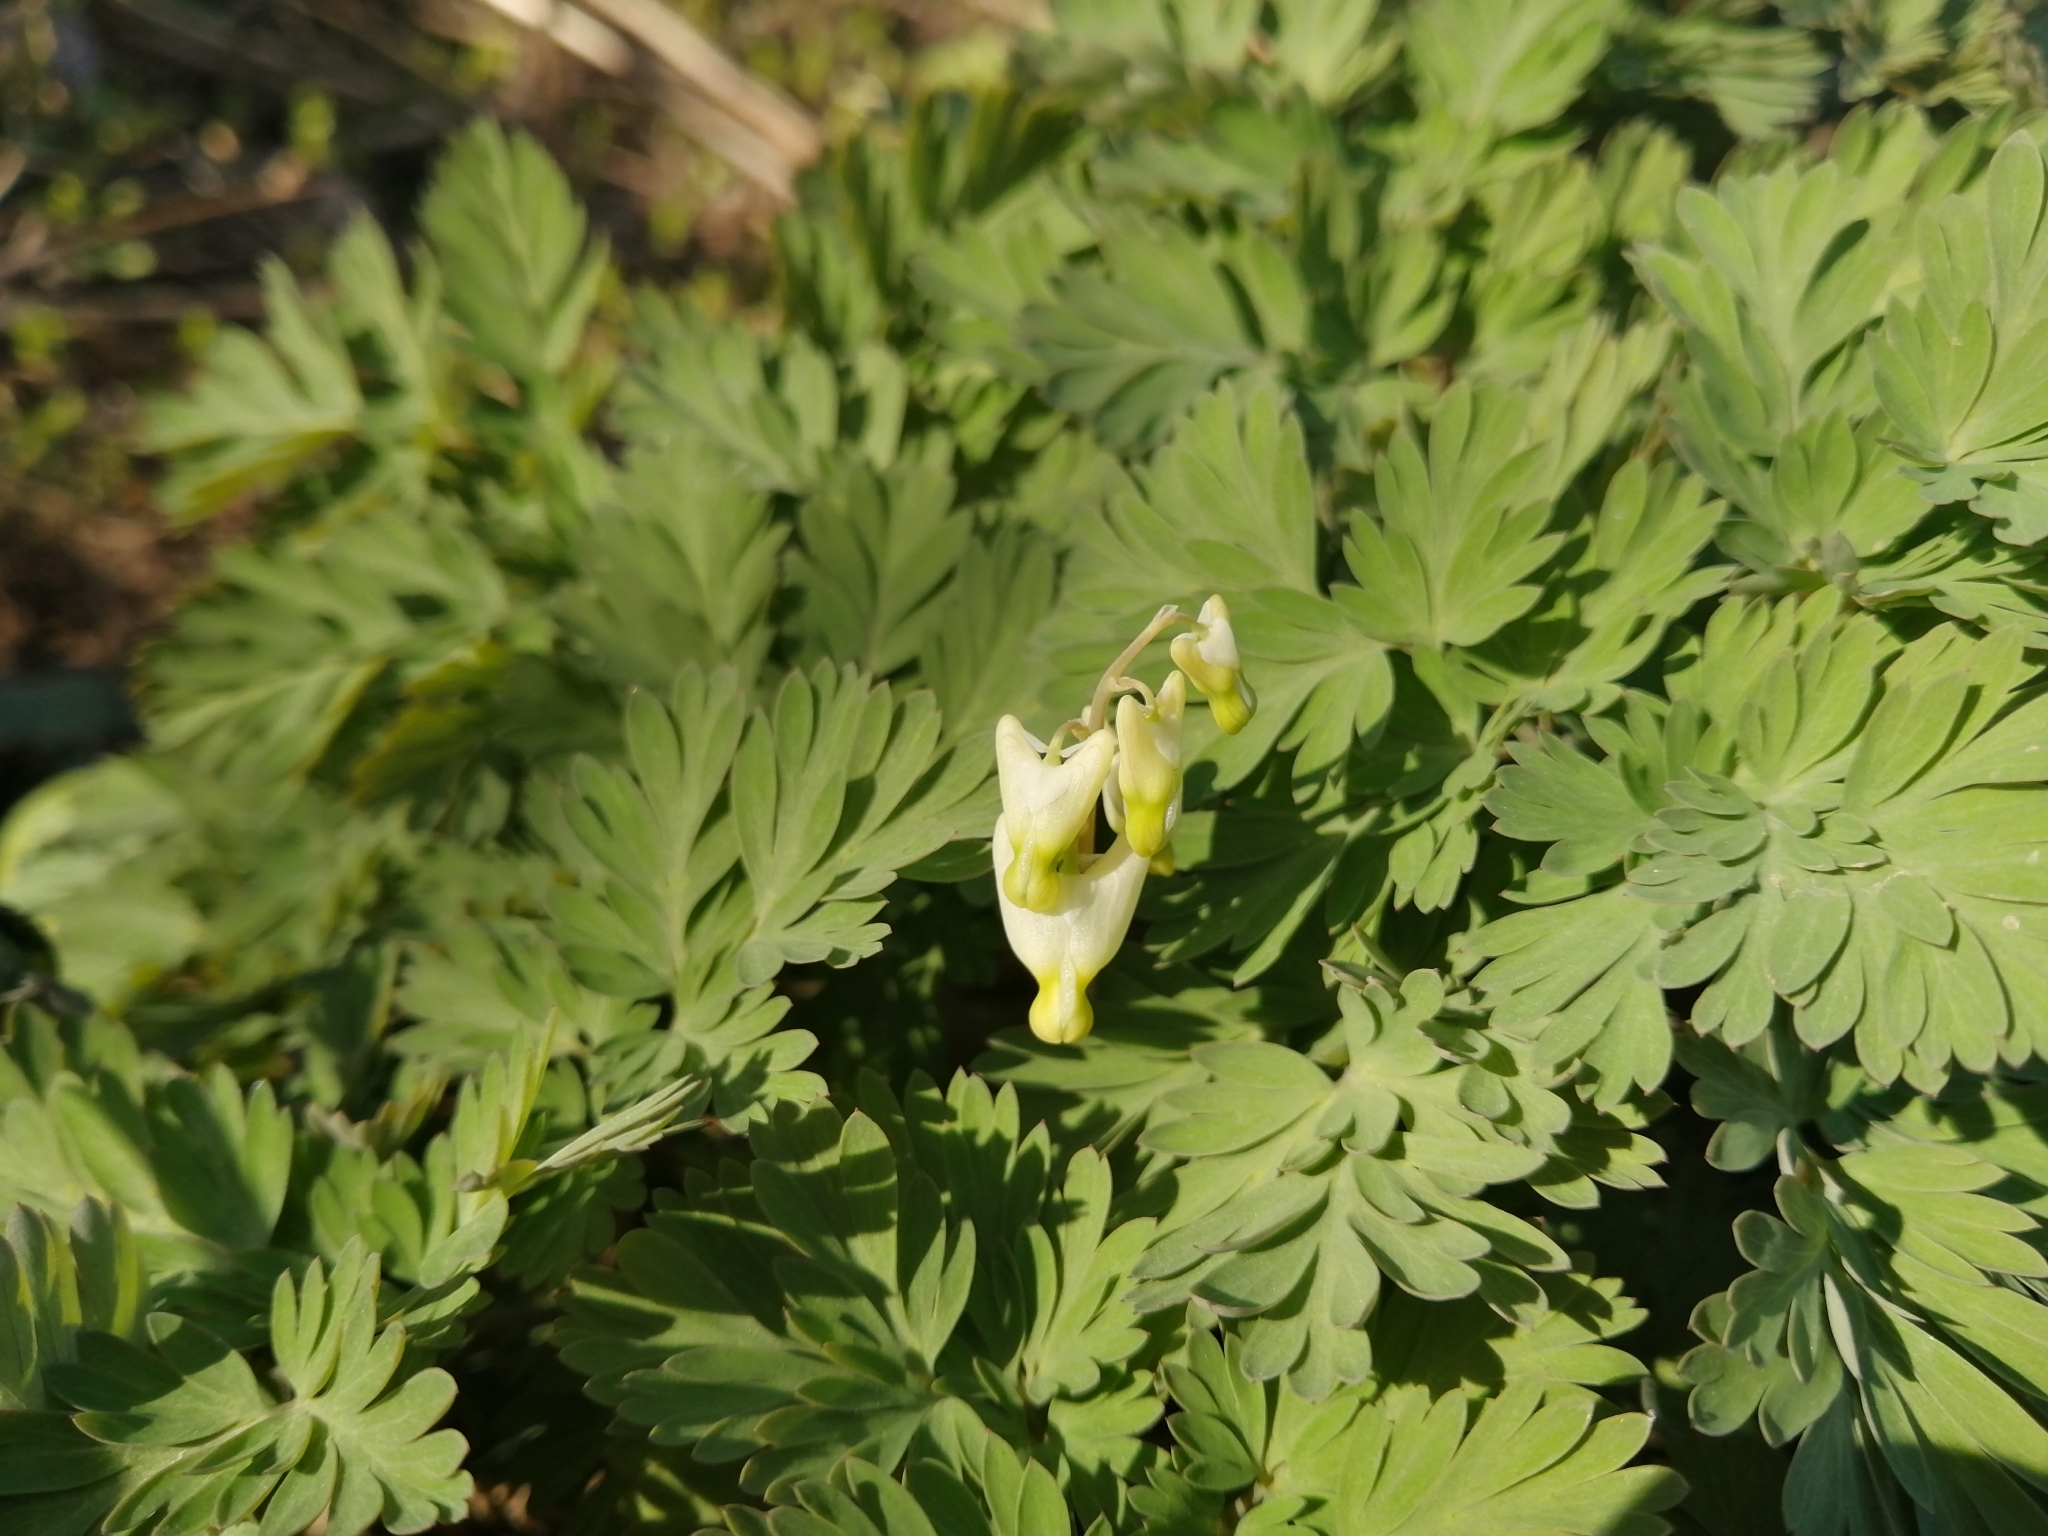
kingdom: Plantae
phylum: Tracheophyta
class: Magnoliopsida
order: Ranunculales
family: Papaveraceae
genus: Dicentra
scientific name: Dicentra cucullaria
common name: Dutchman's breeches
